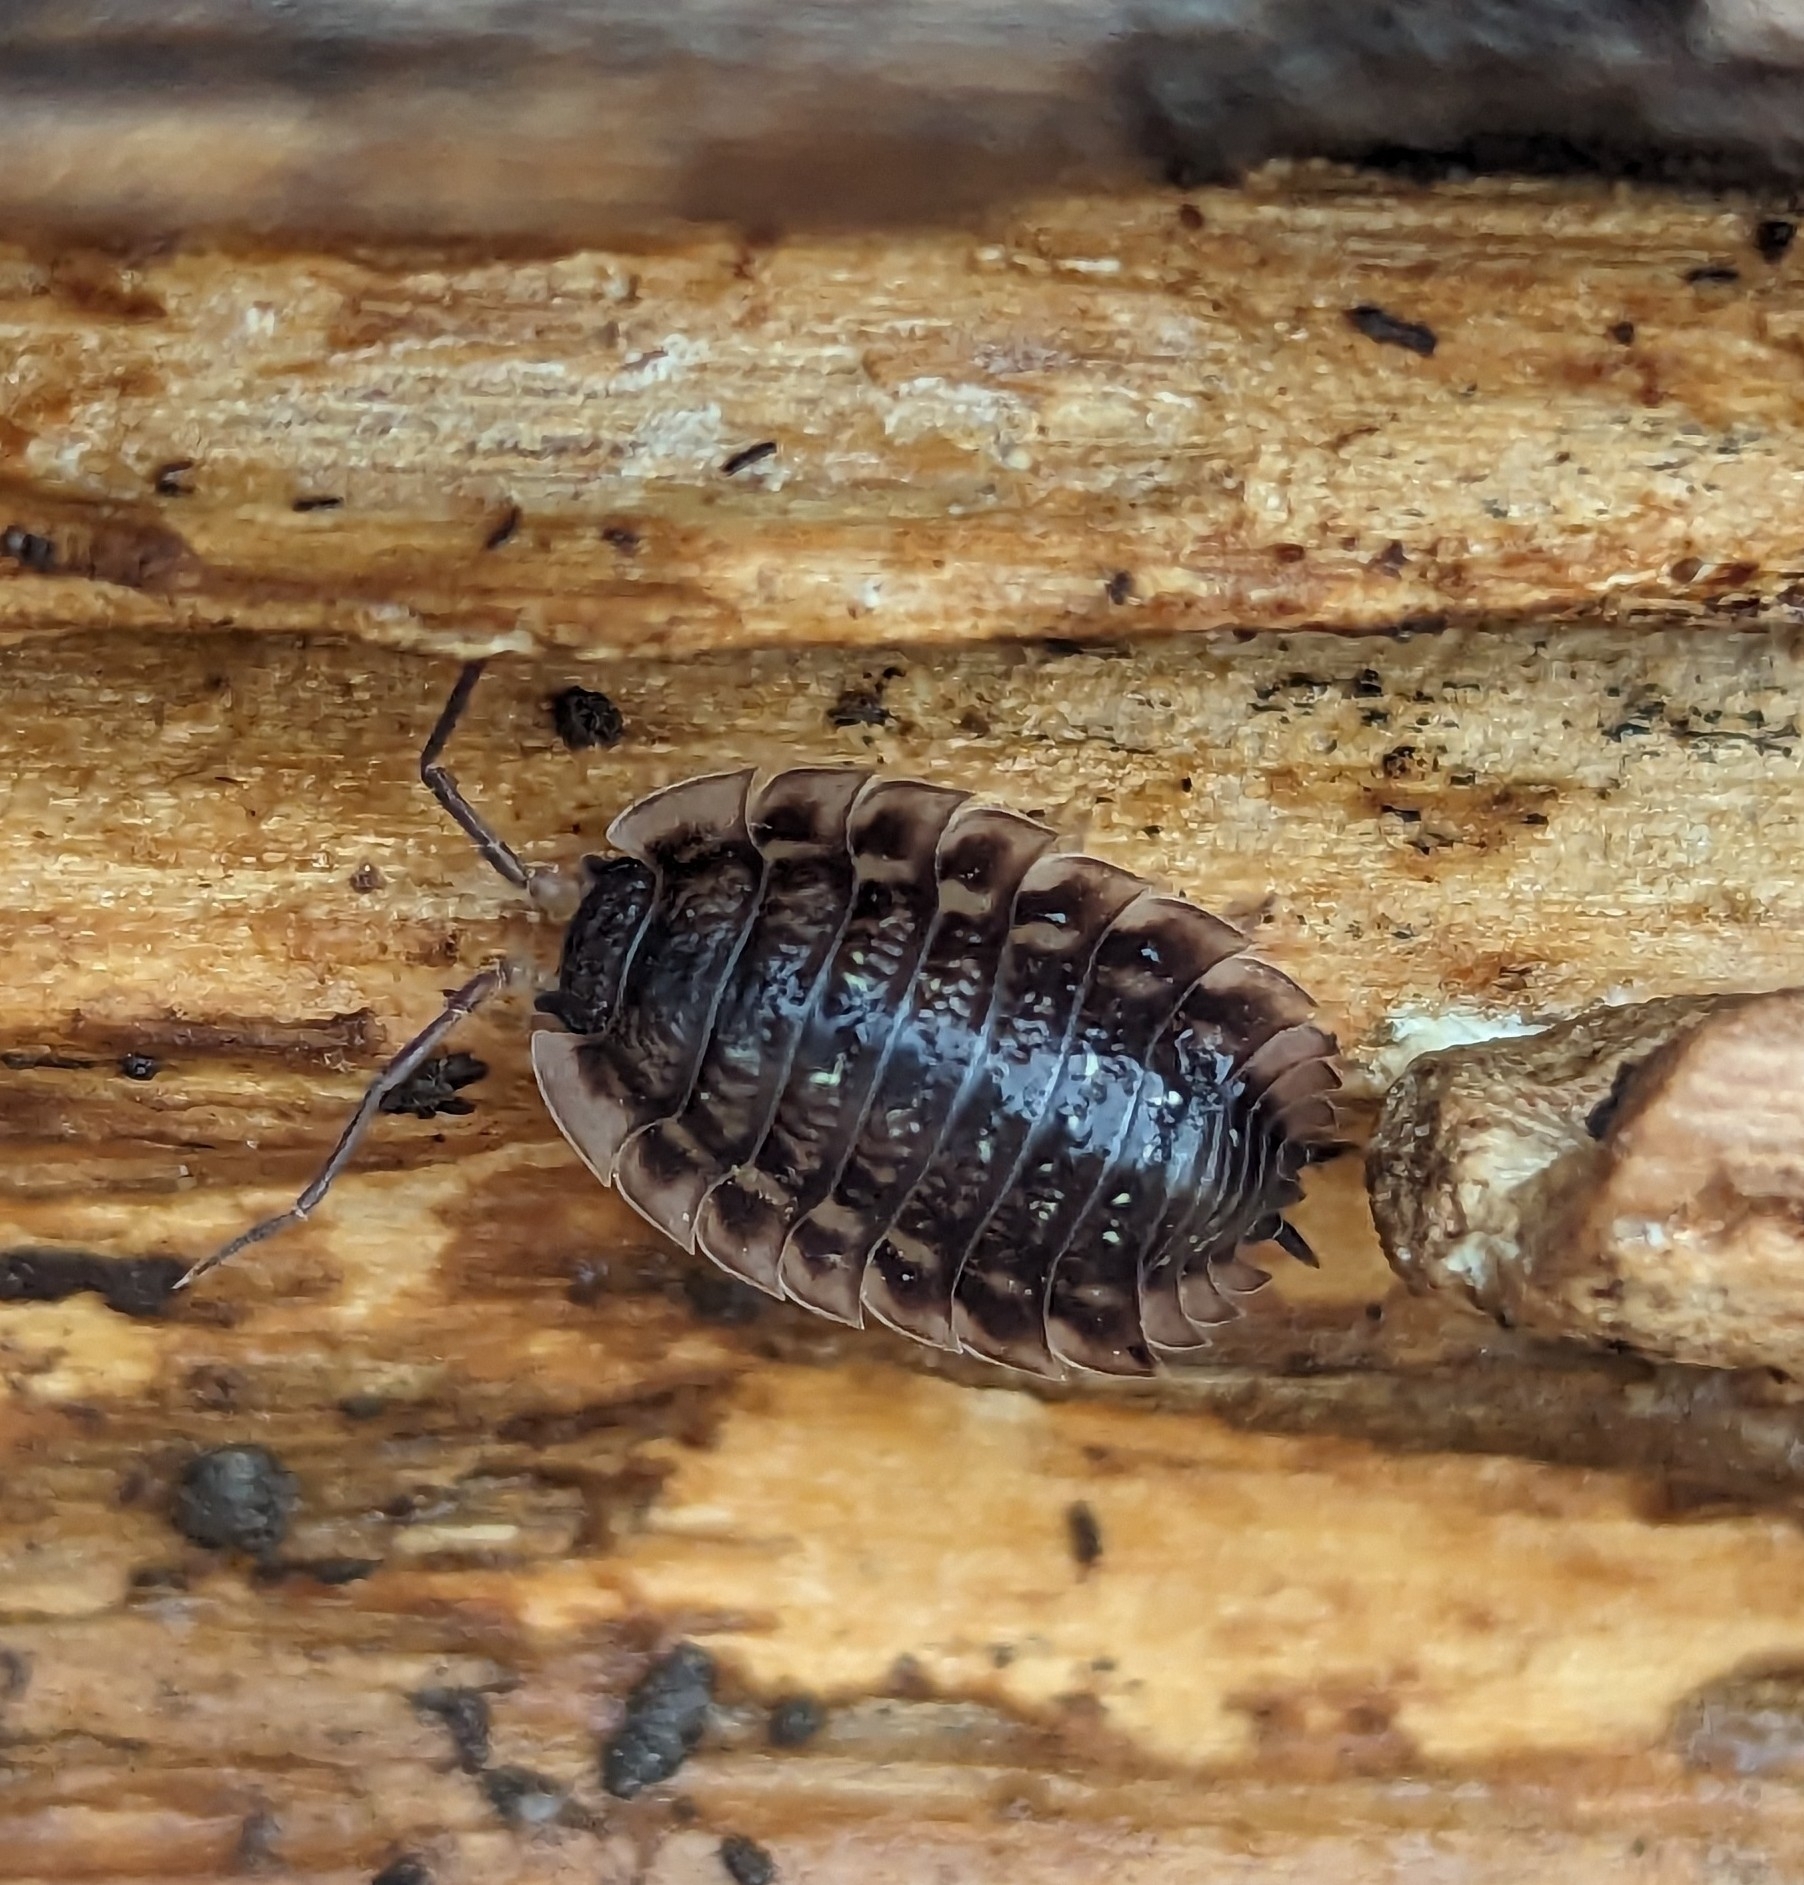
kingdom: Animalia
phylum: Arthropoda
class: Malacostraca
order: Isopoda
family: Oniscidae
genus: Oniscus
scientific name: Oniscus asellus
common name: Common shiny woodlouse
